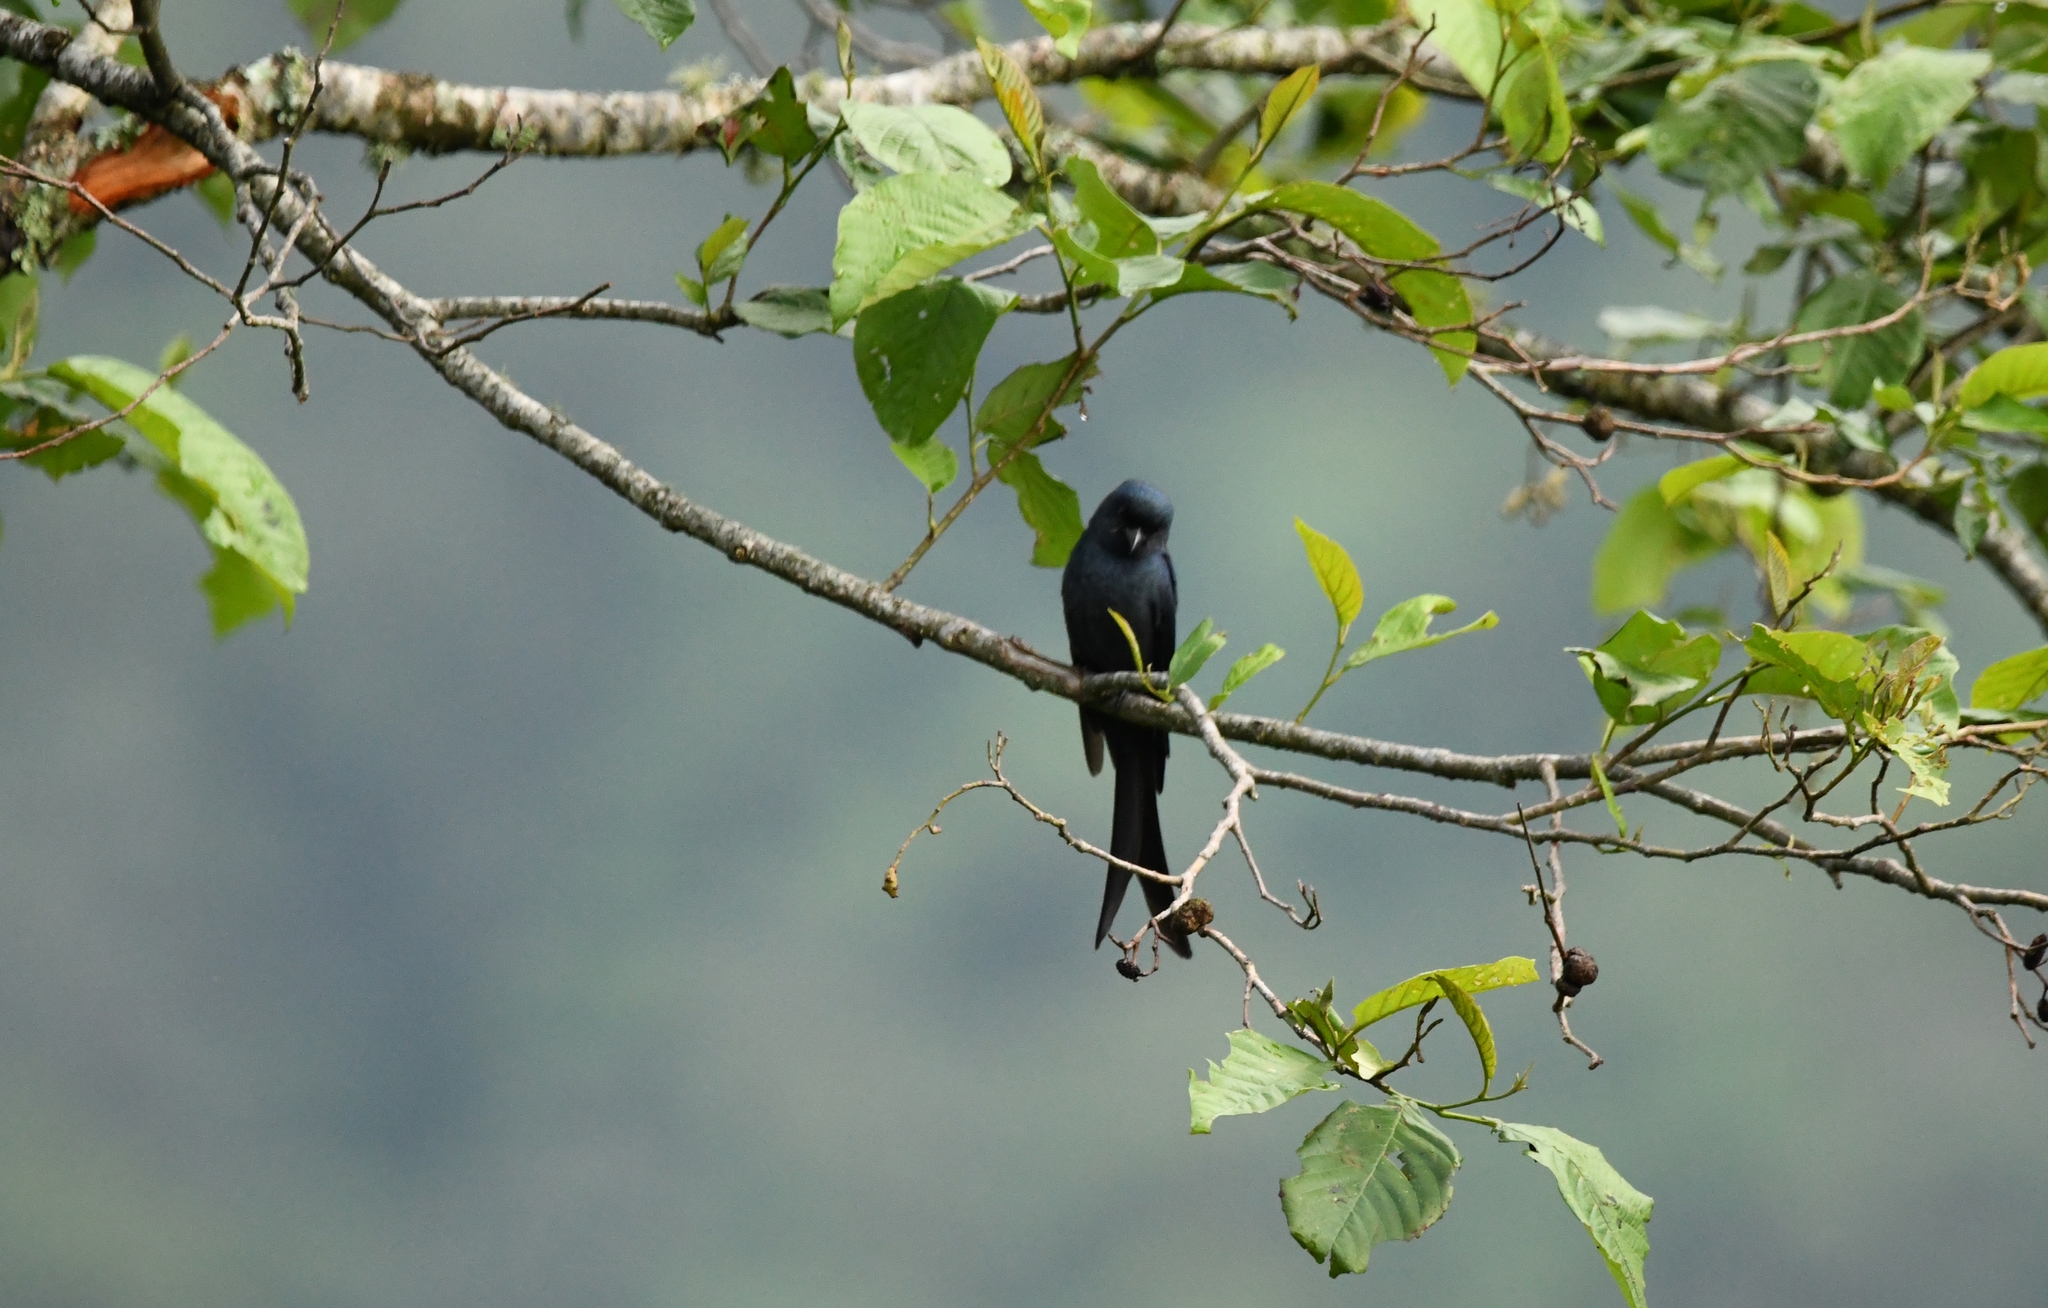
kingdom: Animalia
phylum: Chordata
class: Aves
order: Passeriformes
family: Dicruridae
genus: Dicrurus
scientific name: Dicrurus macrocercus
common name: Black drongo
